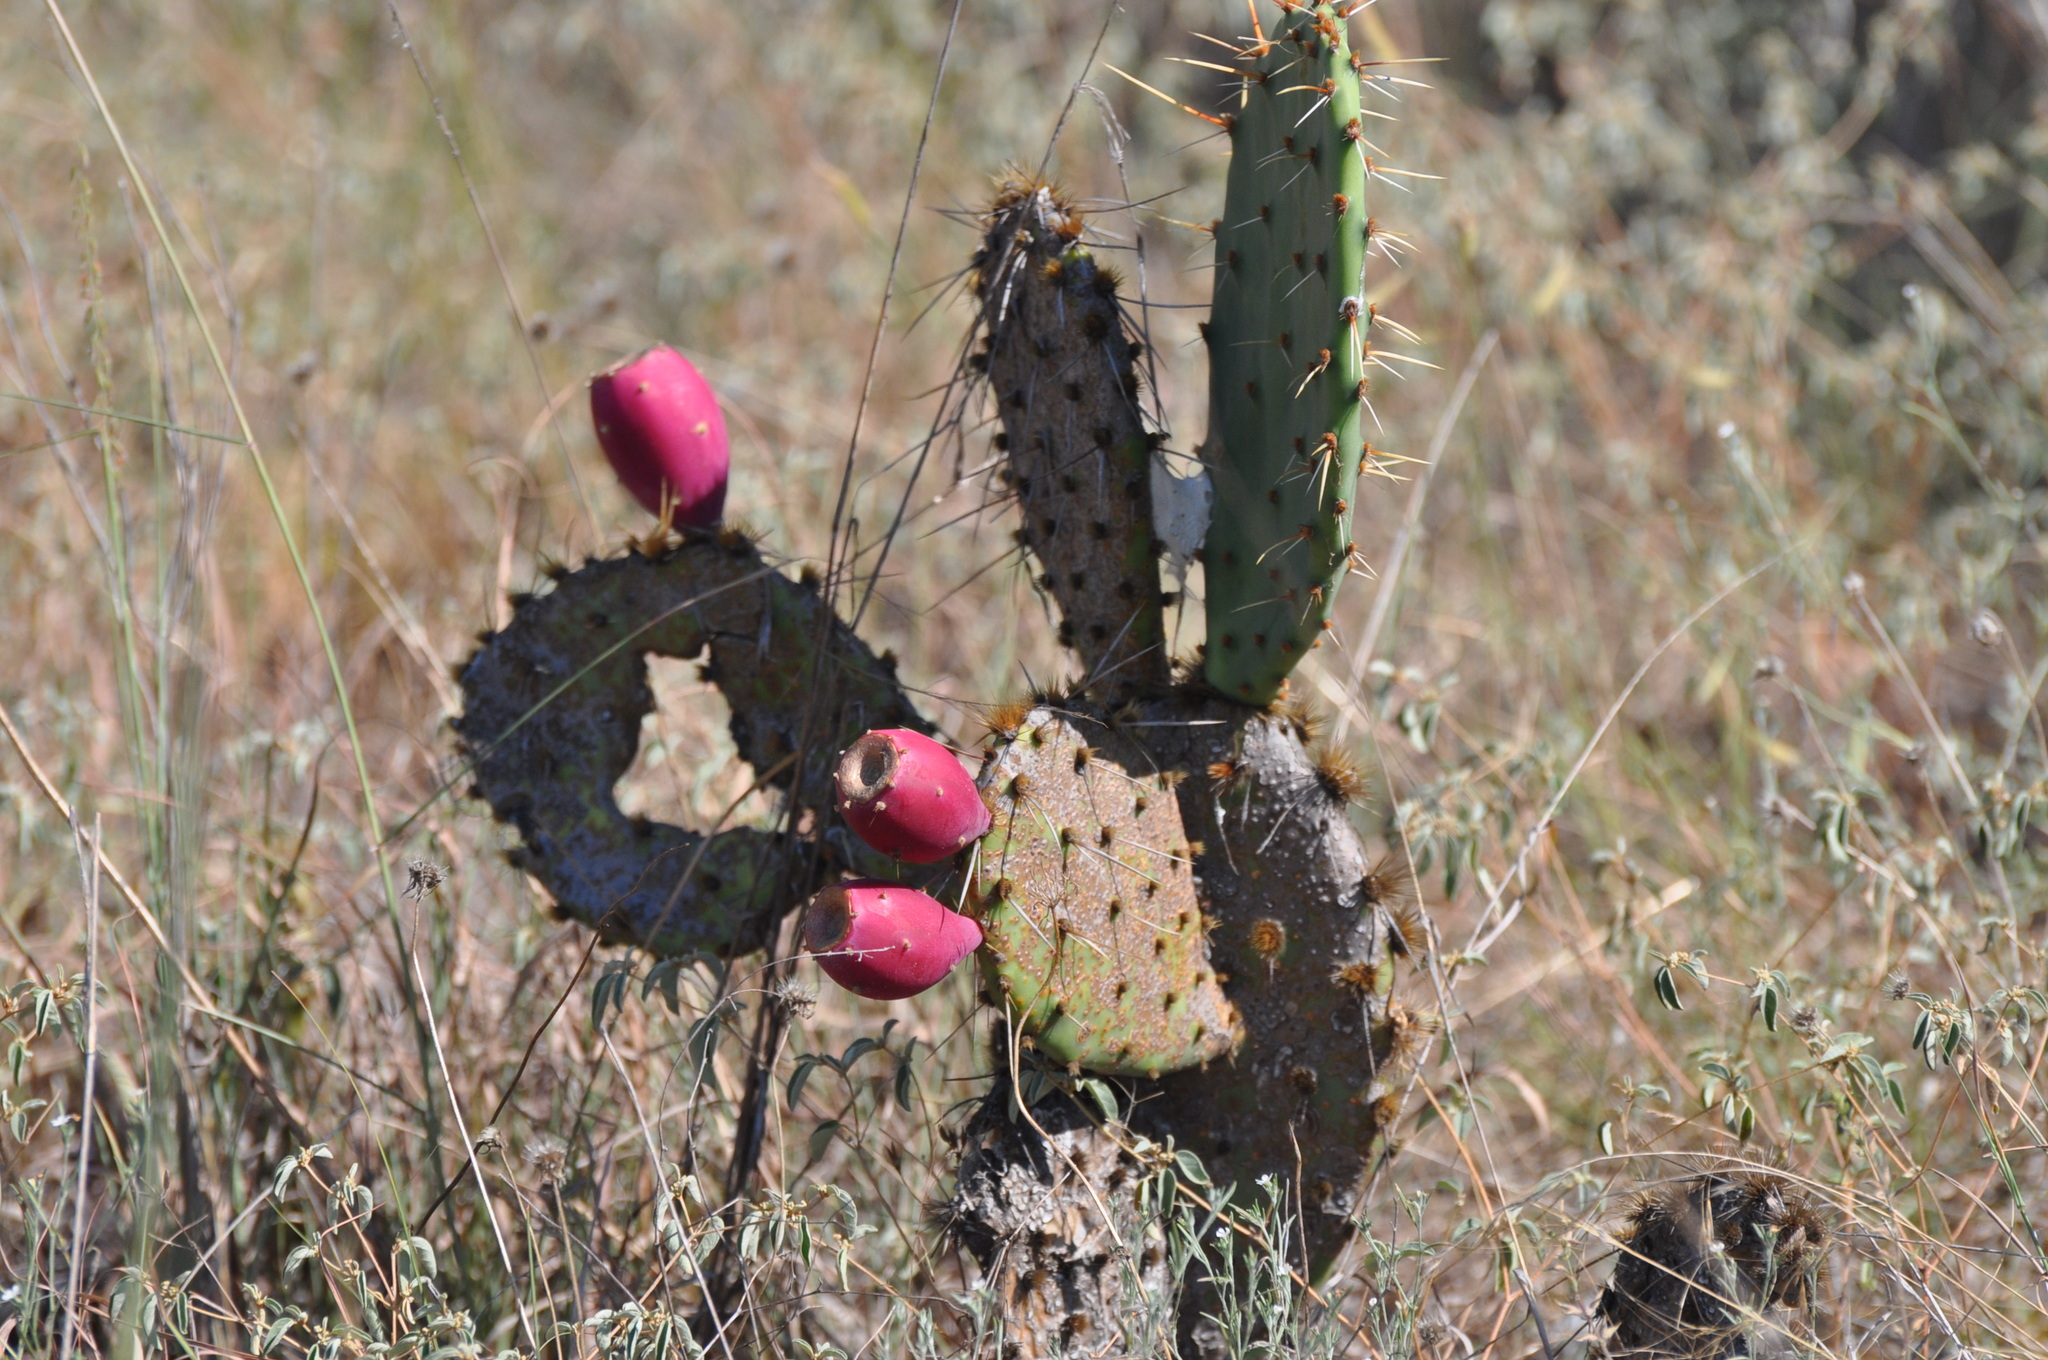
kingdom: Plantae
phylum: Tracheophyta
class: Magnoliopsida
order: Caryophyllales
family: Cactaceae
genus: Opuntia
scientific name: Opuntia engelmannii
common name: Cactus-apple
